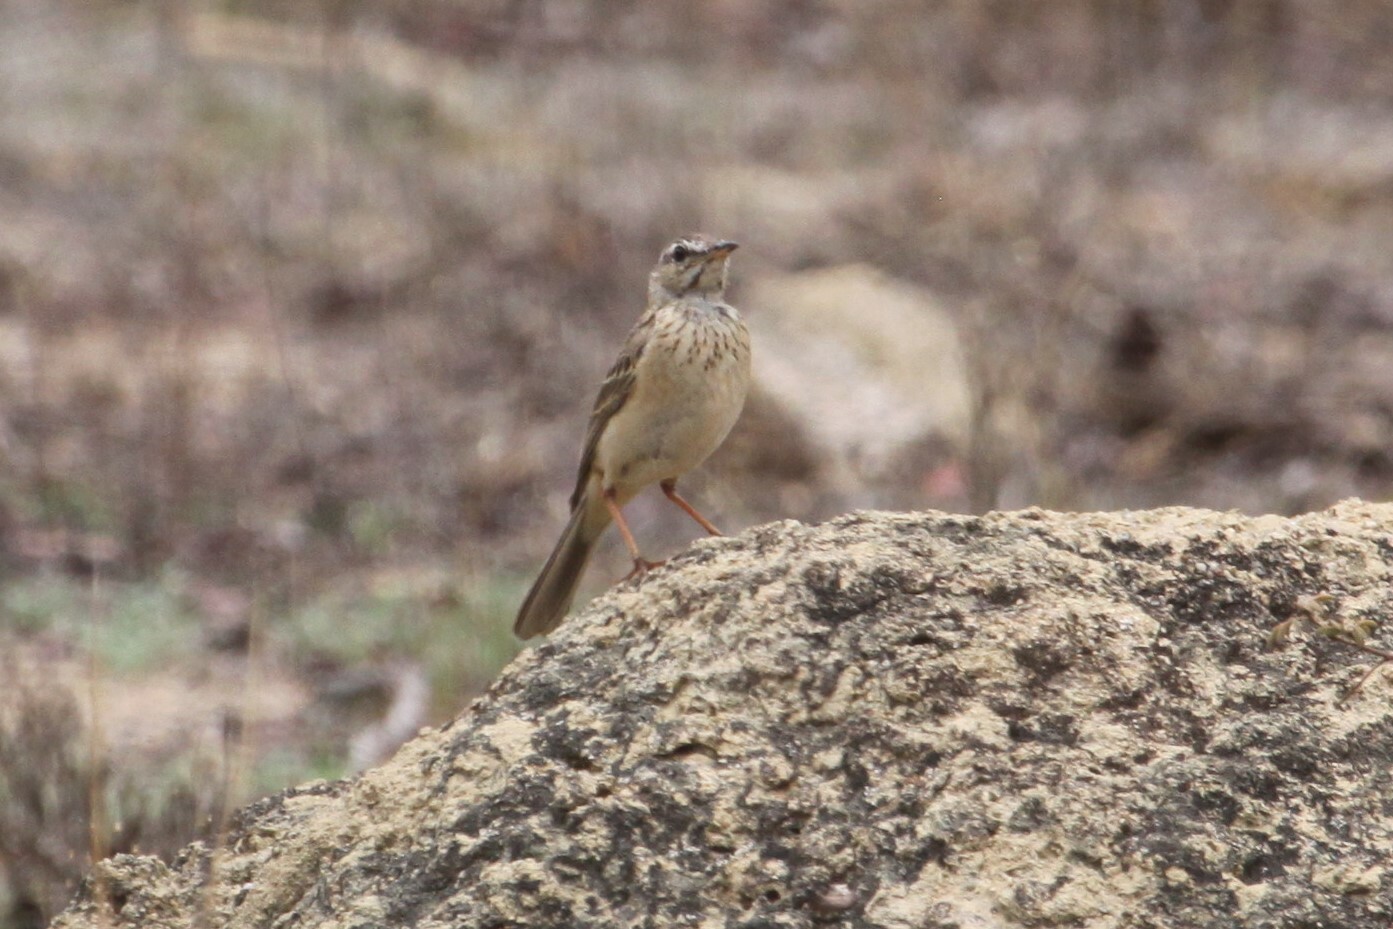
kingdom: Animalia
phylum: Chordata
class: Aves
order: Passeriformes
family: Motacillidae
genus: Anthus
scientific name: Anthus nyassae
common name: Wood pipit
